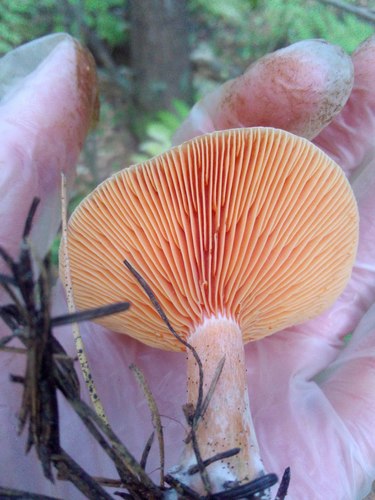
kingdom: Fungi
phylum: Basidiomycota
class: Agaricomycetes
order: Russulales
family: Russulaceae
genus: Lactarius
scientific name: Lactarius deliciosus
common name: Saffron milk-cap
